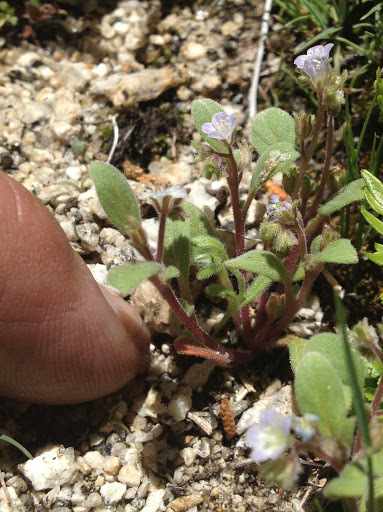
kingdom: Plantae
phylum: Tracheophyta
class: Magnoliopsida
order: Boraginales
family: Hydrophyllaceae
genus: Phacelia
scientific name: Phacelia eisenii
